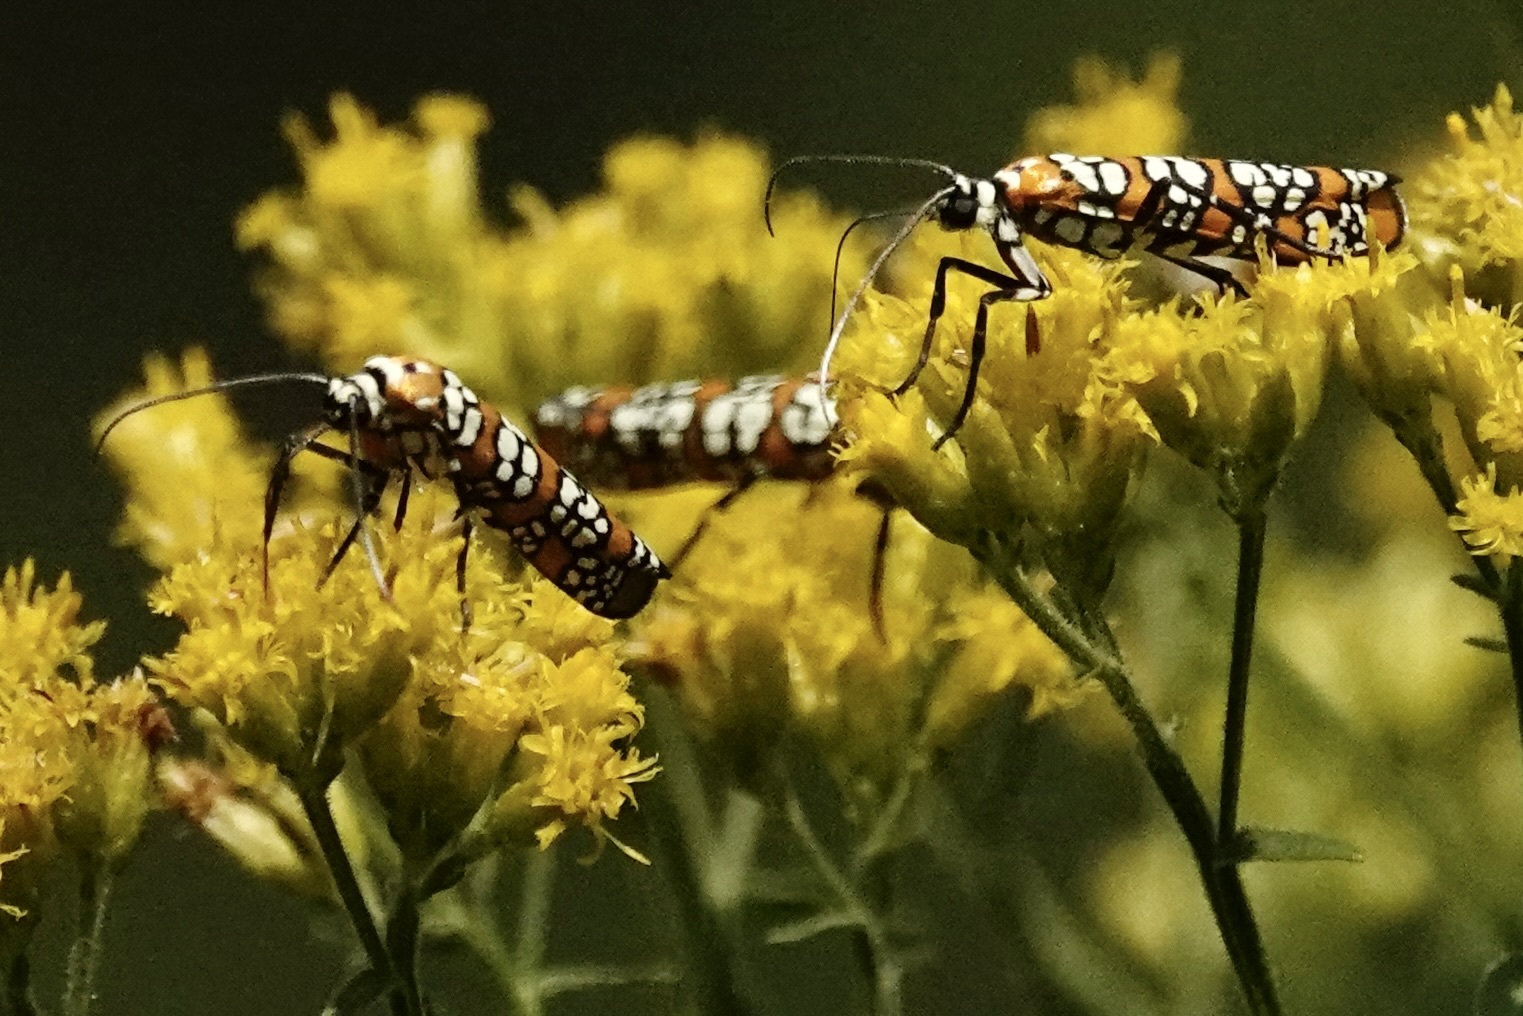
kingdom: Animalia
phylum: Arthropoda
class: Insecta
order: Lepidoptera
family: Attevidae
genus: Atteva
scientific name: Atteva punctella
